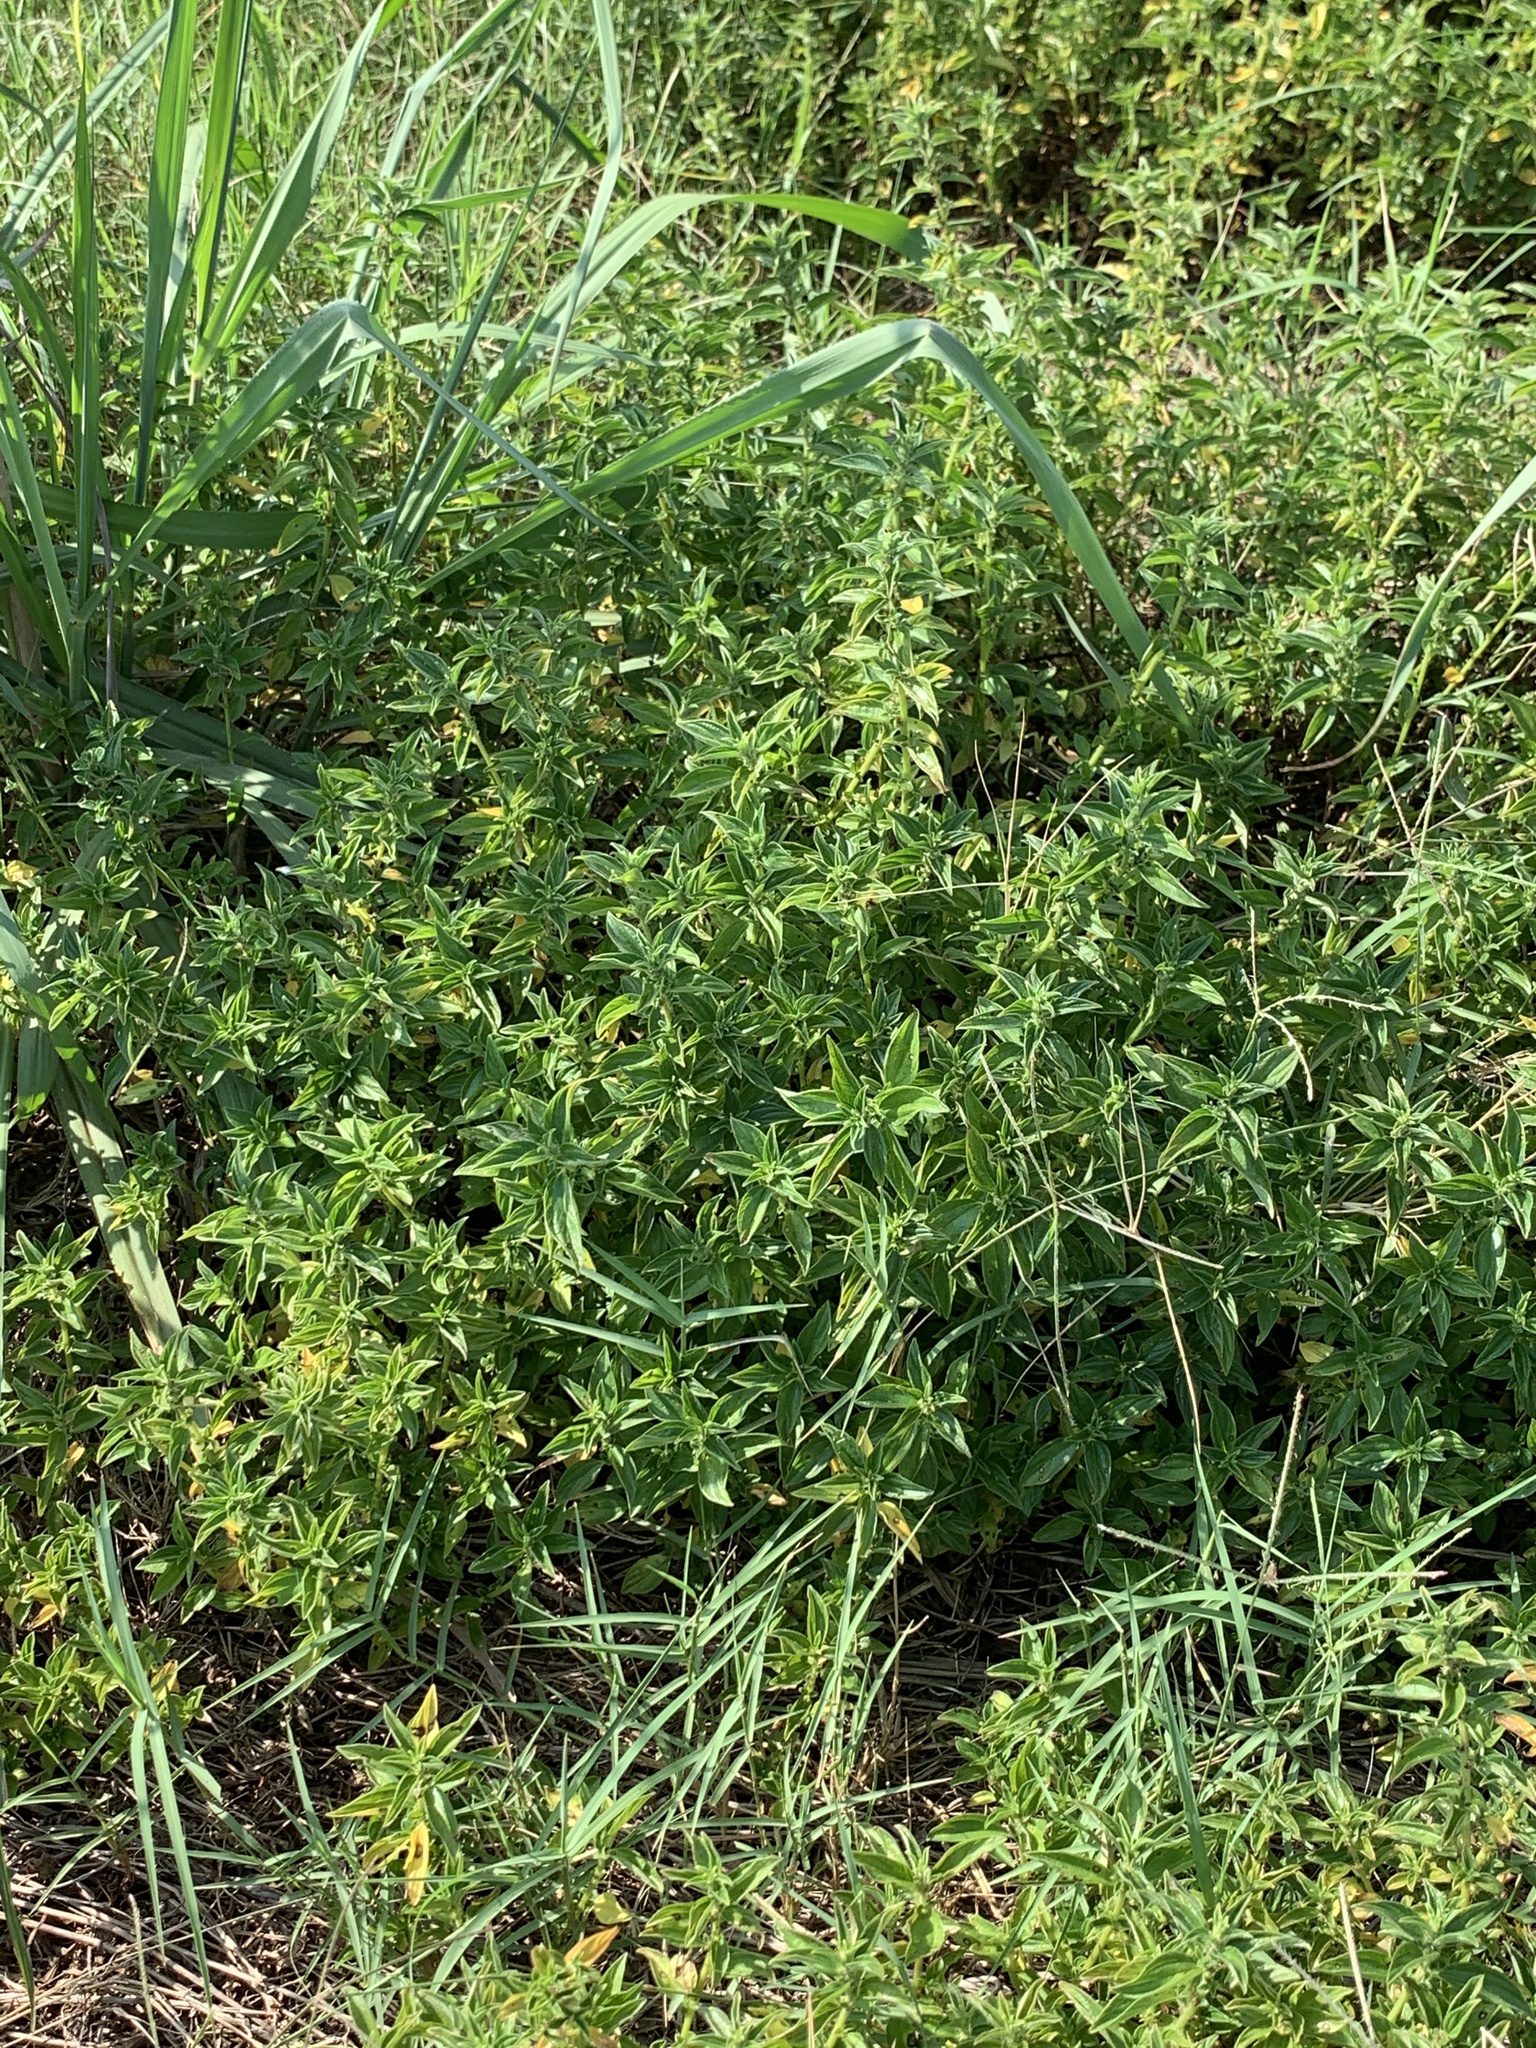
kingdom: Plantae
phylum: Tracheophyta
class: Magnoliopsida
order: Rosales
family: Urticaceae
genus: Pouzolzia
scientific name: Pouzolzia zeylanica
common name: Graceful pouzolzsbush
